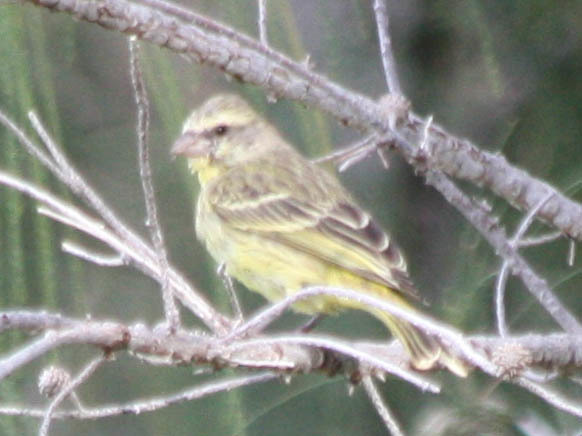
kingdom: Animalia
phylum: Chordata
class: Aves
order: Passeriformes
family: Fringillidae
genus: Crithagra
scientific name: Crithagra mozambica
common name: Yellow-fronted canary
